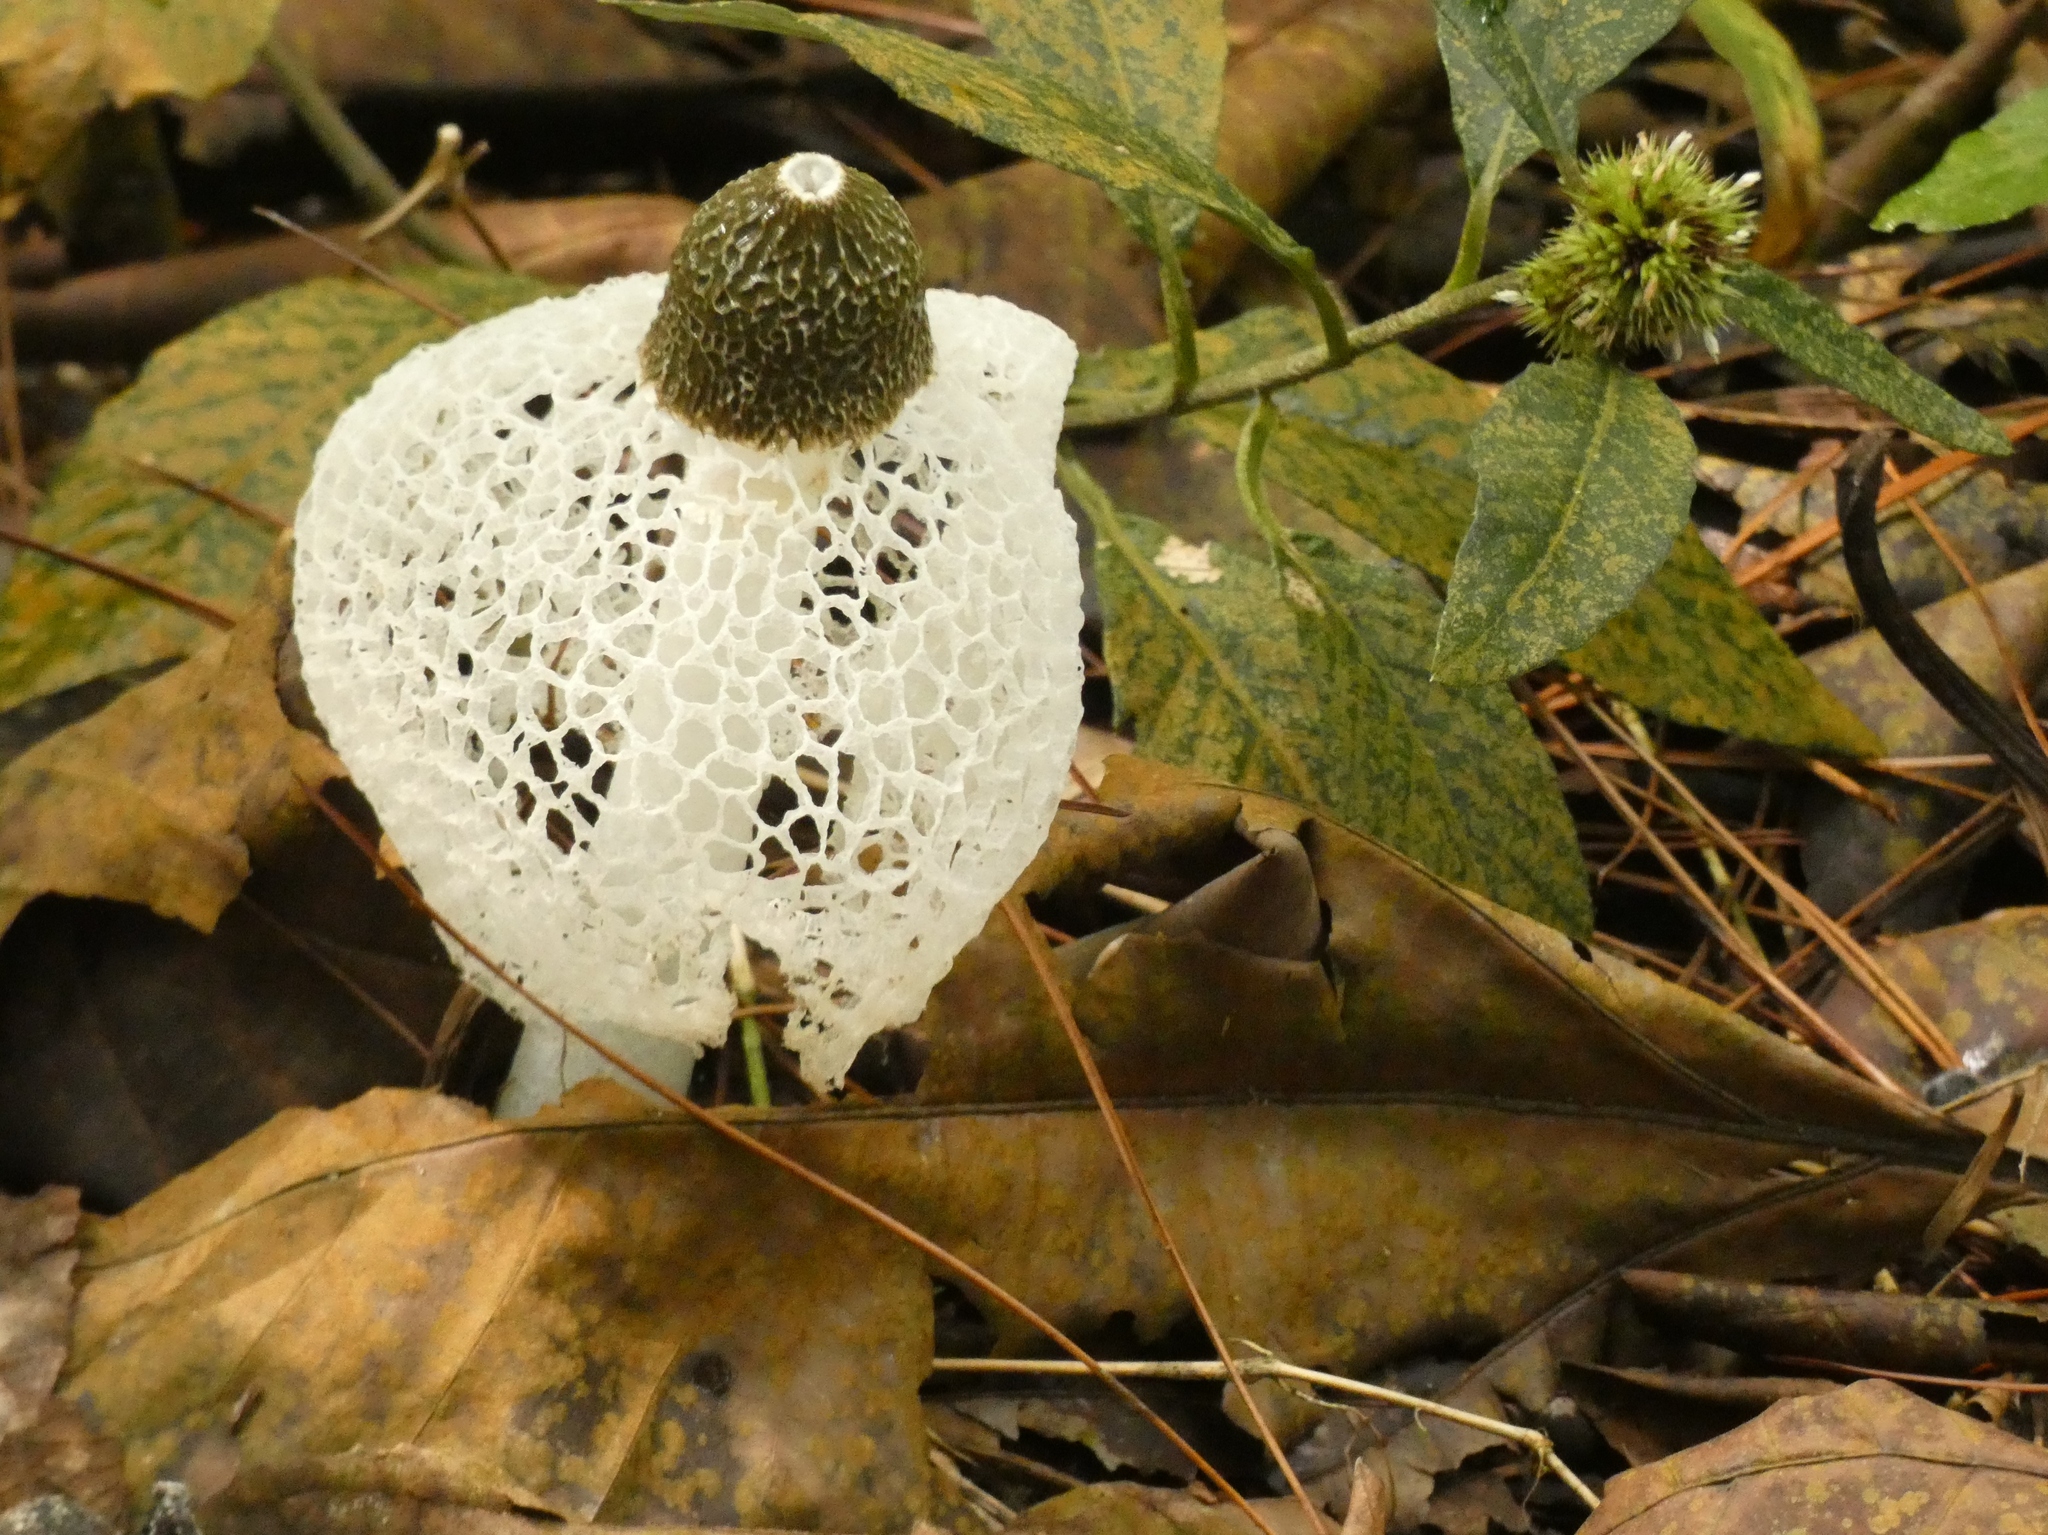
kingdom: Fungi
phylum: Basidiomycota
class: Agaricomycetes
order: Phallales
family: Phallaceae
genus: Phallus
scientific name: Phallus indusiatus
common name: Bridal veil stinkhorn
